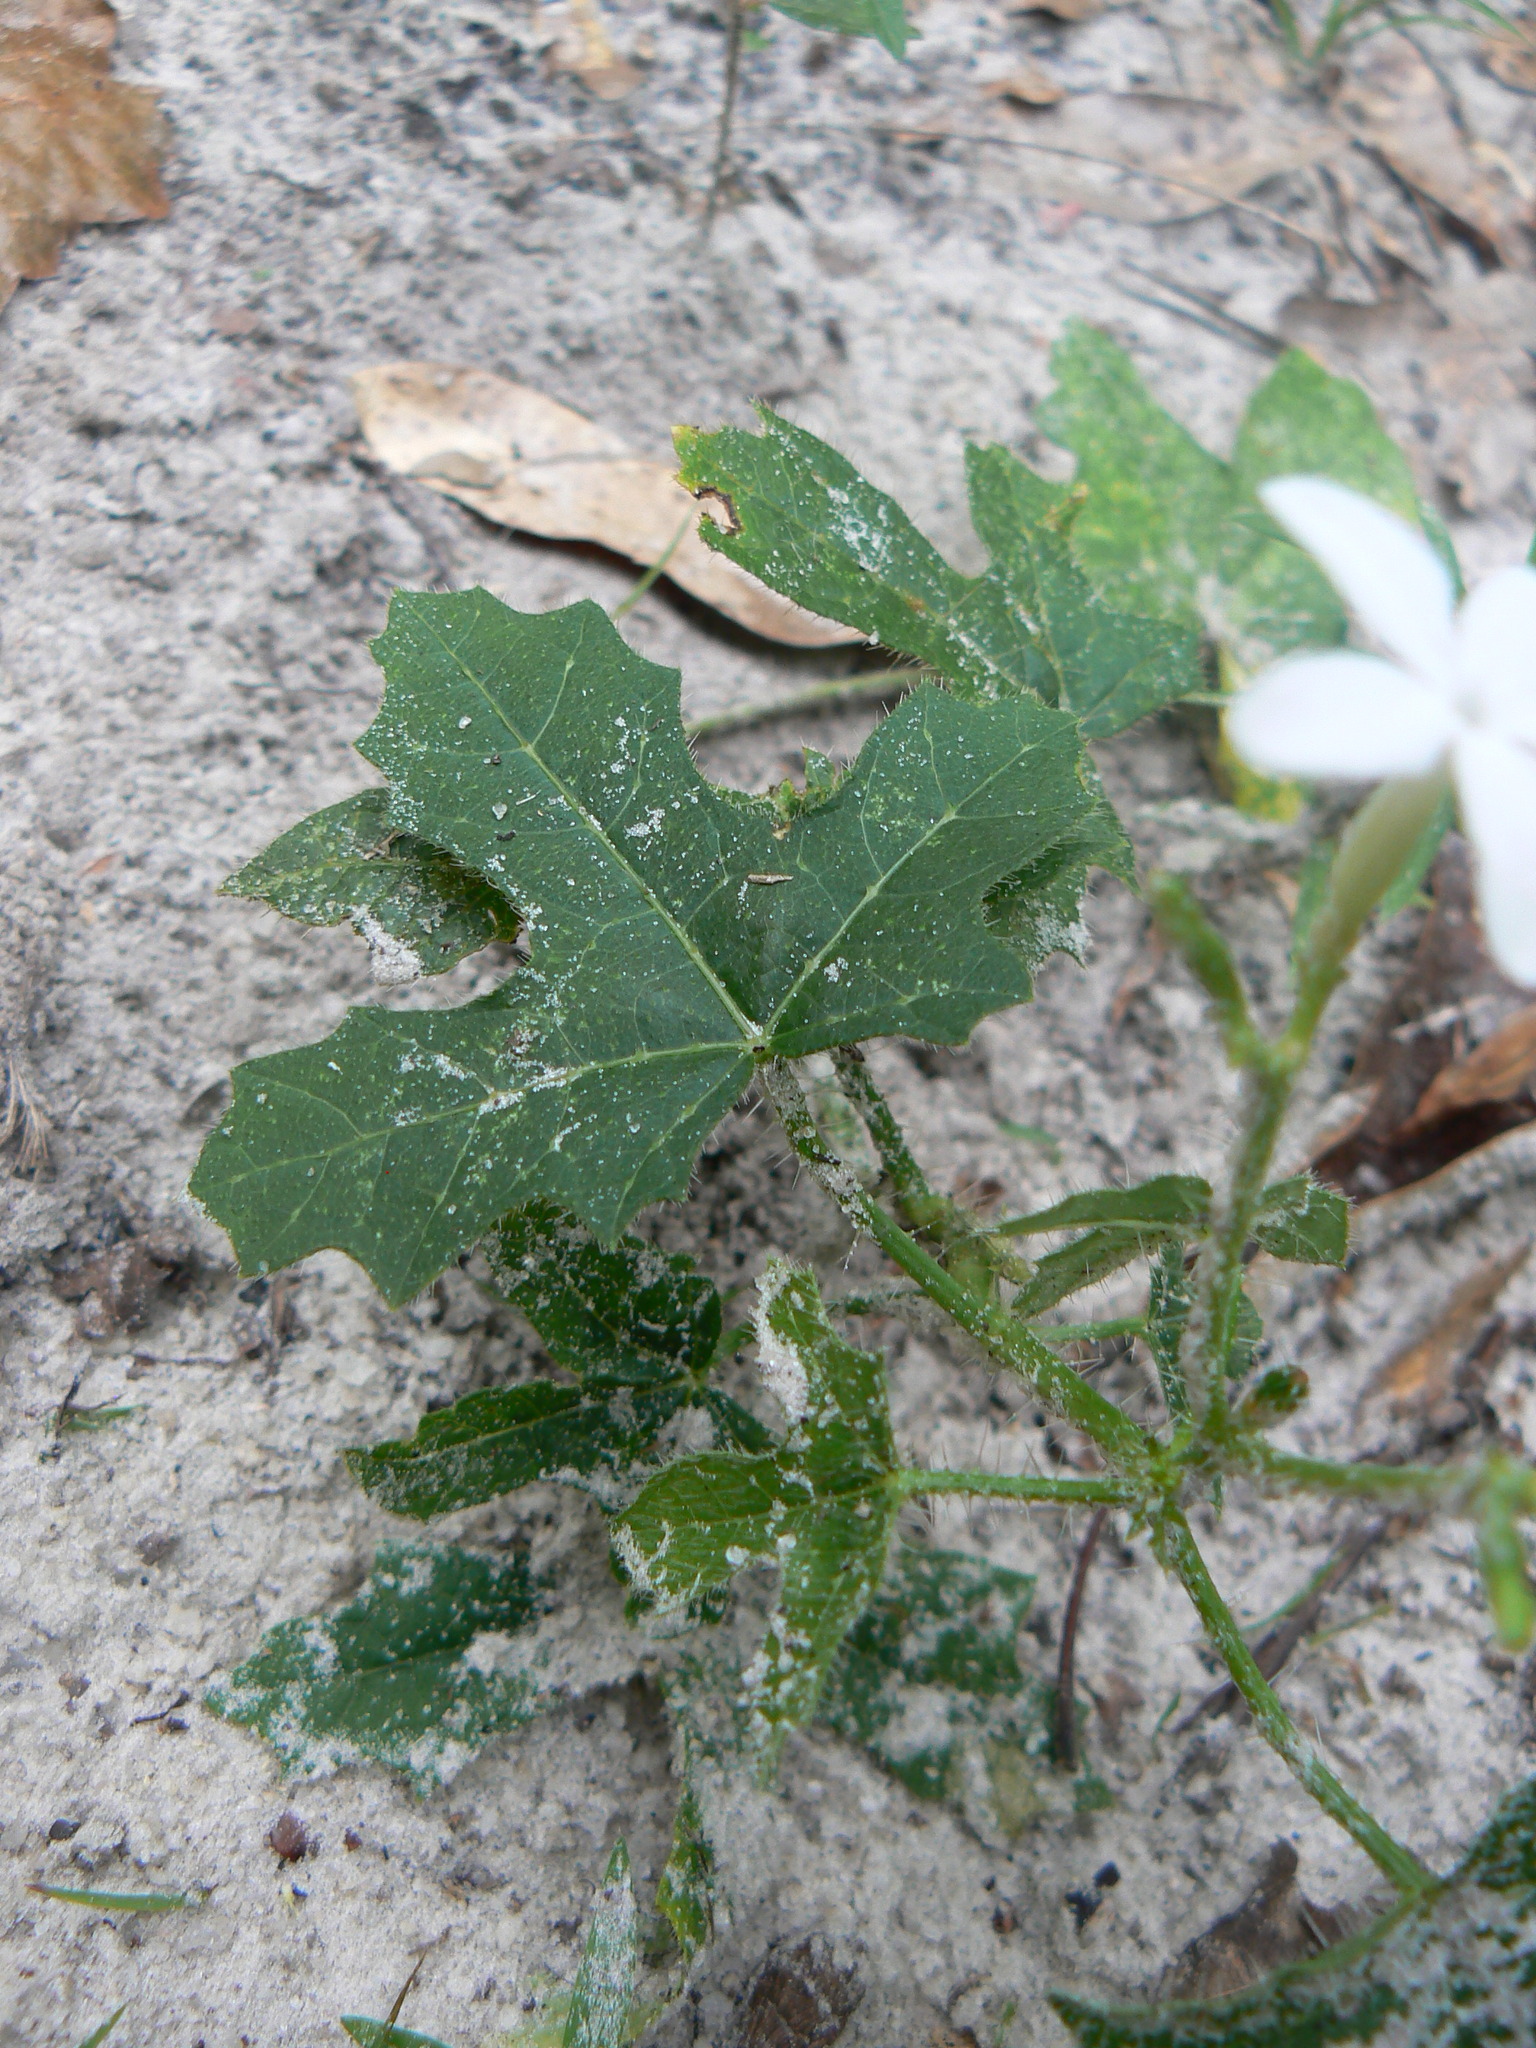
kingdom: Plantae
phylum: Tracheophyta
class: Magnoliopsida
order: Malpighiales
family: Euphorbiaceae
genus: Cnidoscolus
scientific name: Cnidoscolus stimulosus
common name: Bull-nettle
